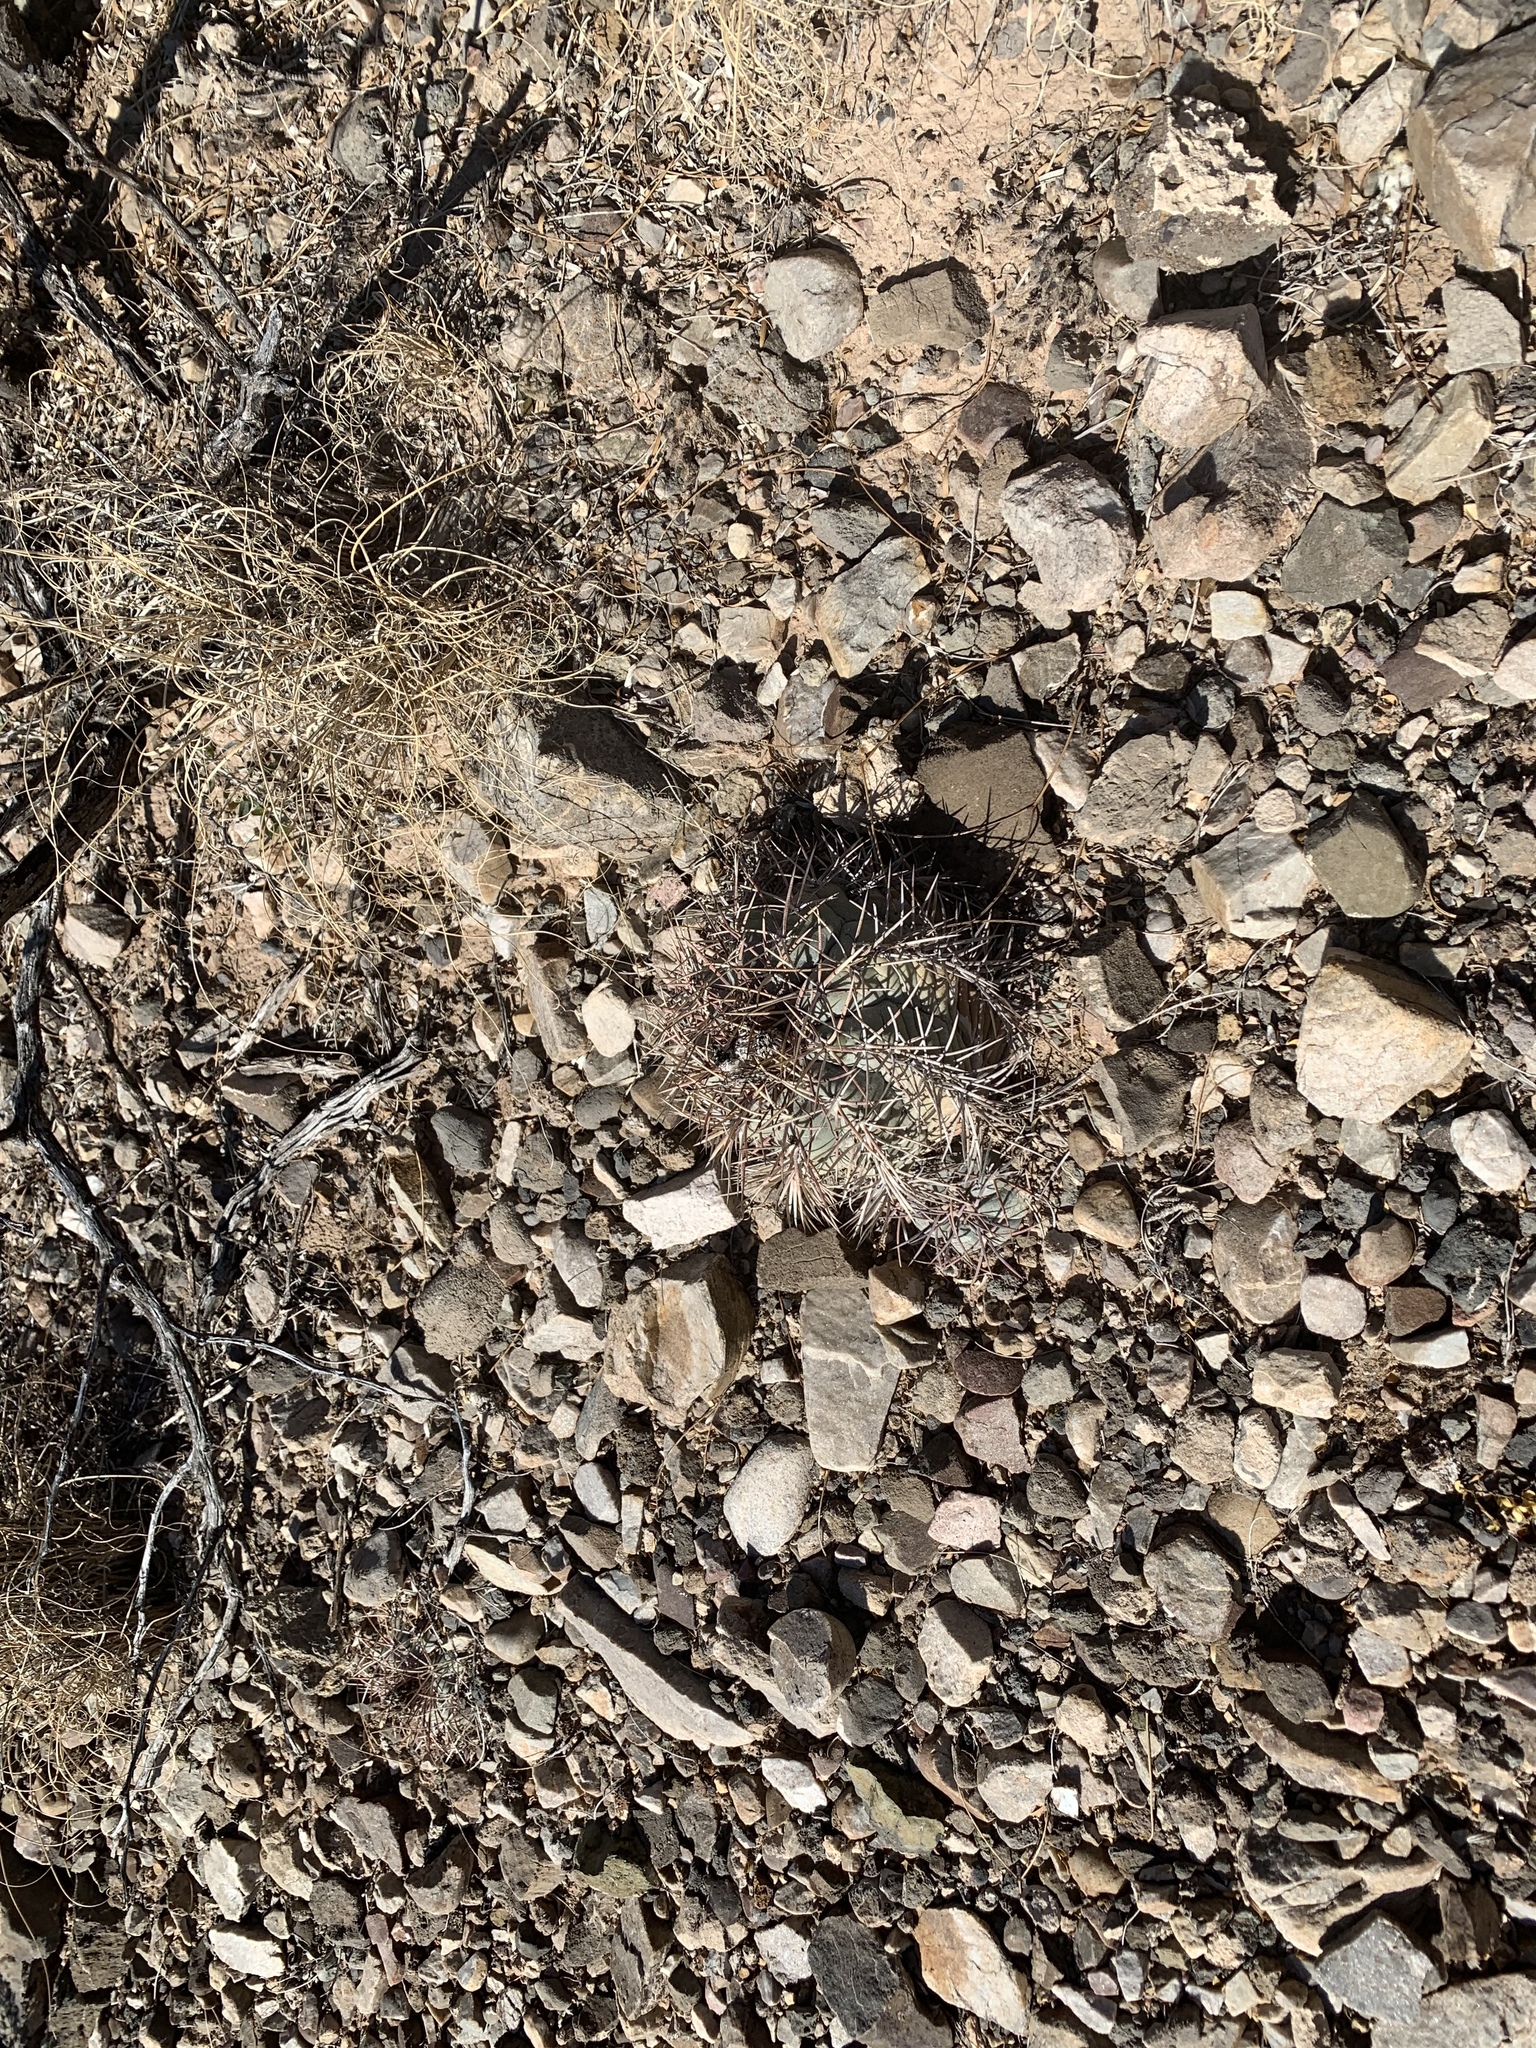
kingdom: Plantae
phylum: Tracheophyta
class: Magnoliopsida
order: Caryophyllales
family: Cactaceae
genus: Echinocactus
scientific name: Echinocactus horizonthalonius
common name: Devilshead
